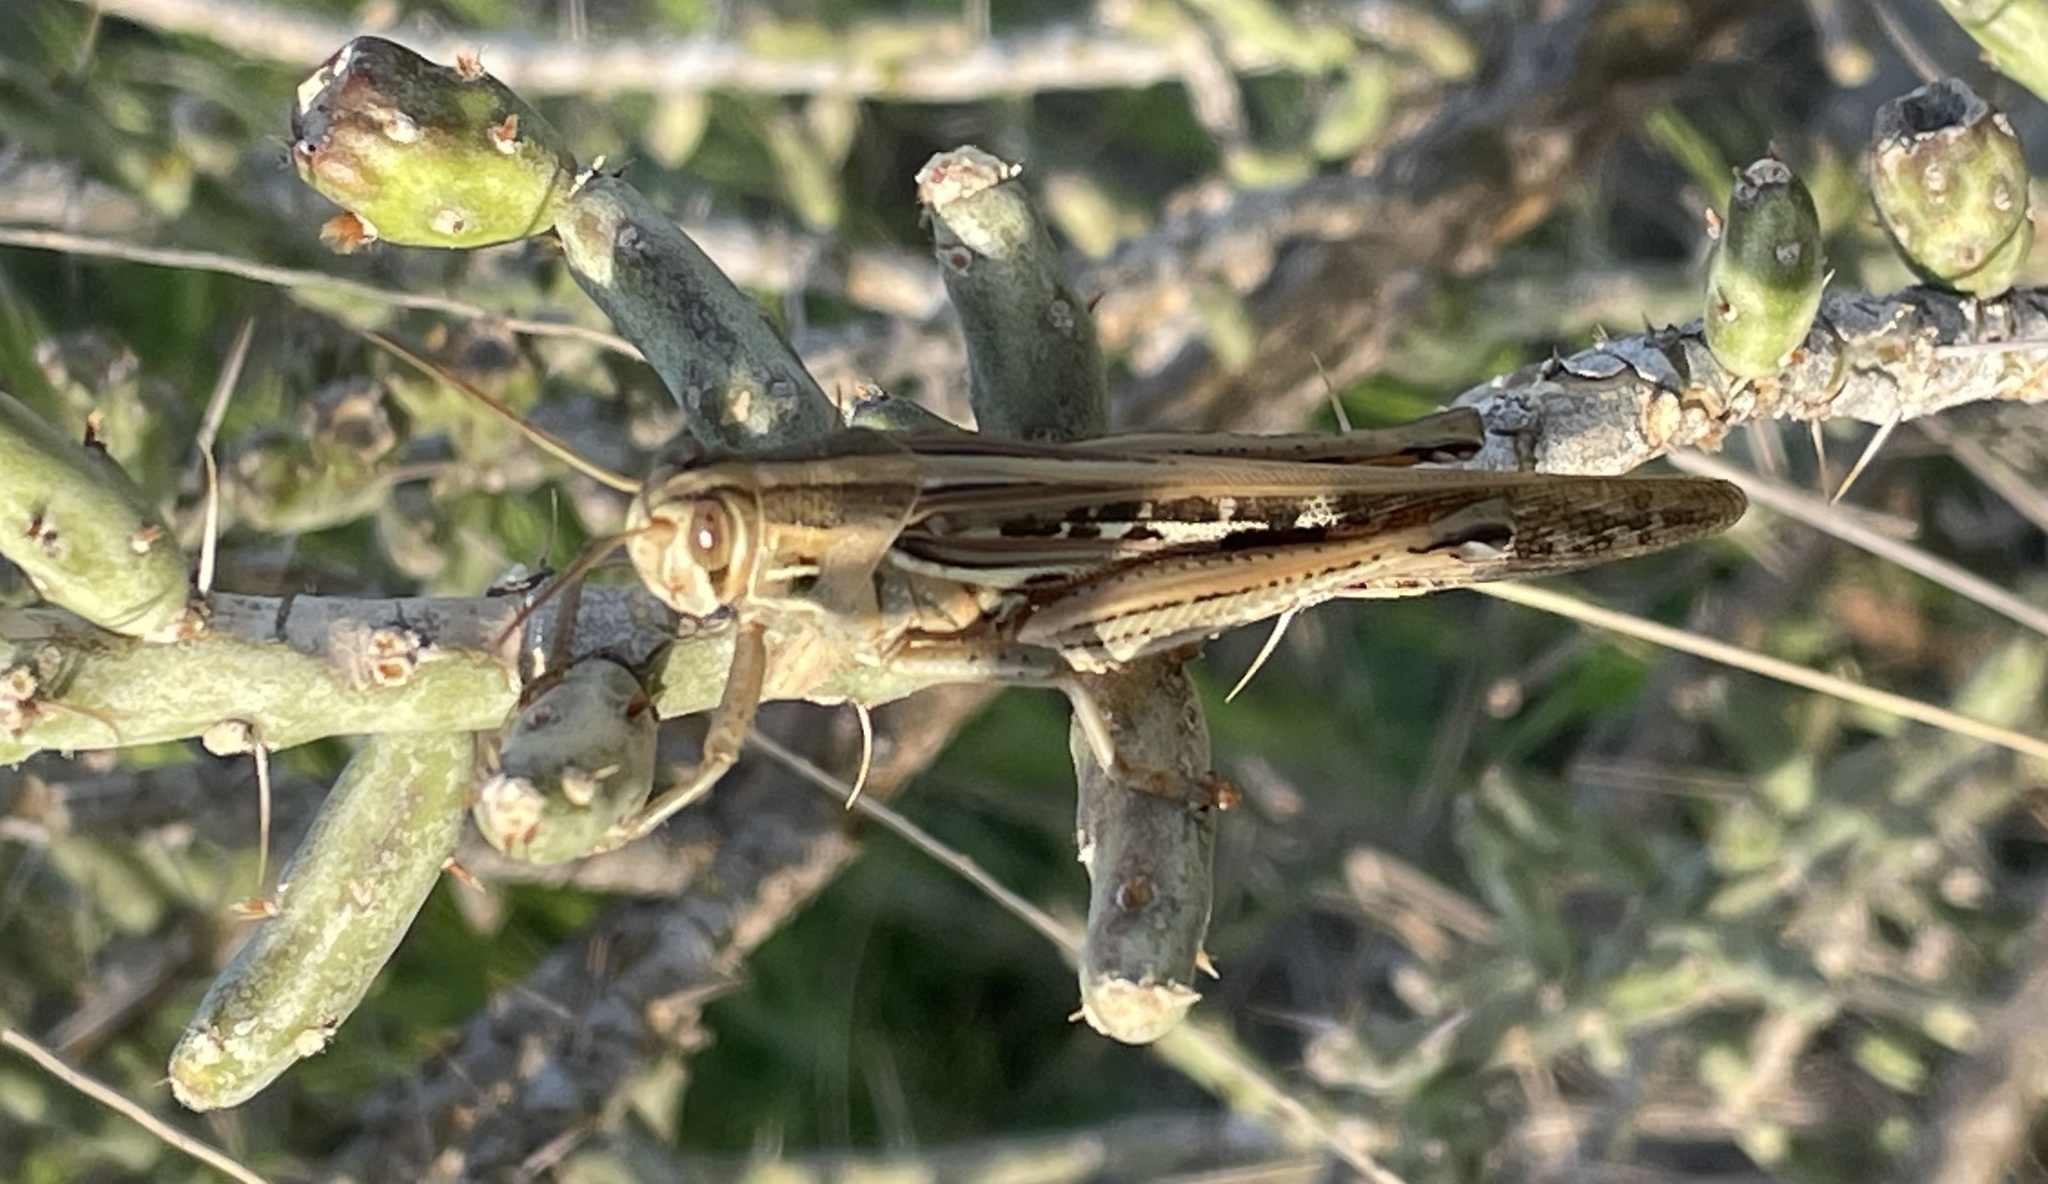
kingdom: Animalia
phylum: Arthropoda
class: Insecta
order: Orthoptera
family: Acrididae
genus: Schistocerca
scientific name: Schistocerca americana
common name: American bird locust
